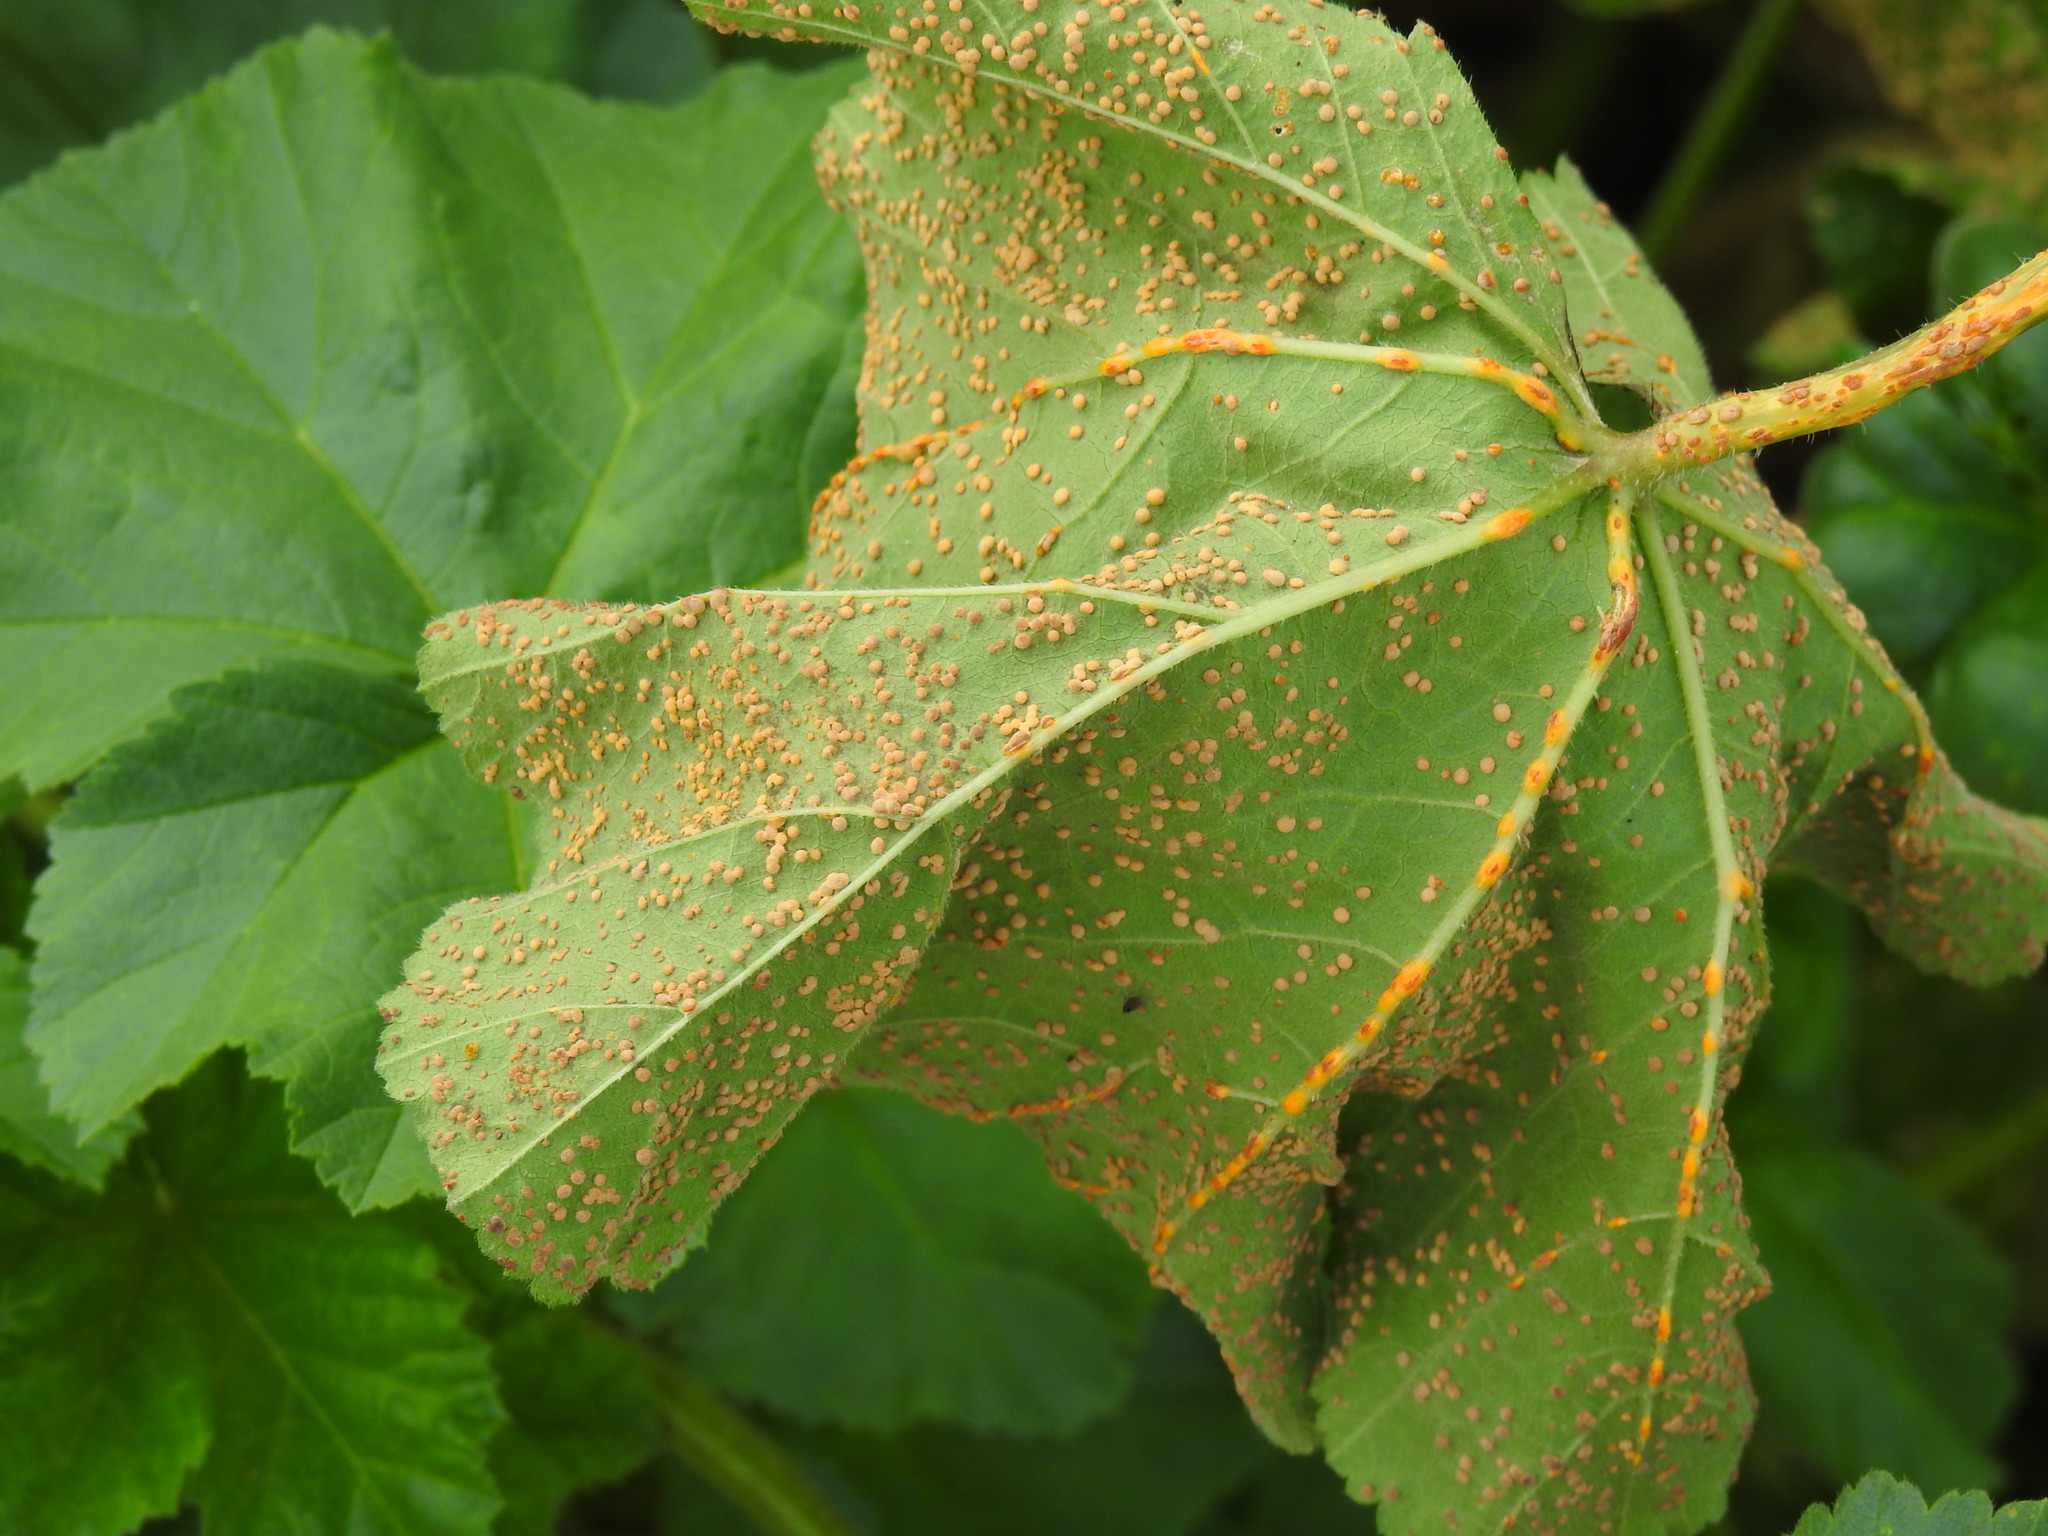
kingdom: Fungi
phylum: Basidiomycota
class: Pucciniomycetes
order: Pucciniales
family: Pucciniaceae
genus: Puccinia
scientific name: Puccinia malvacearum
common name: Hollyhock rust
